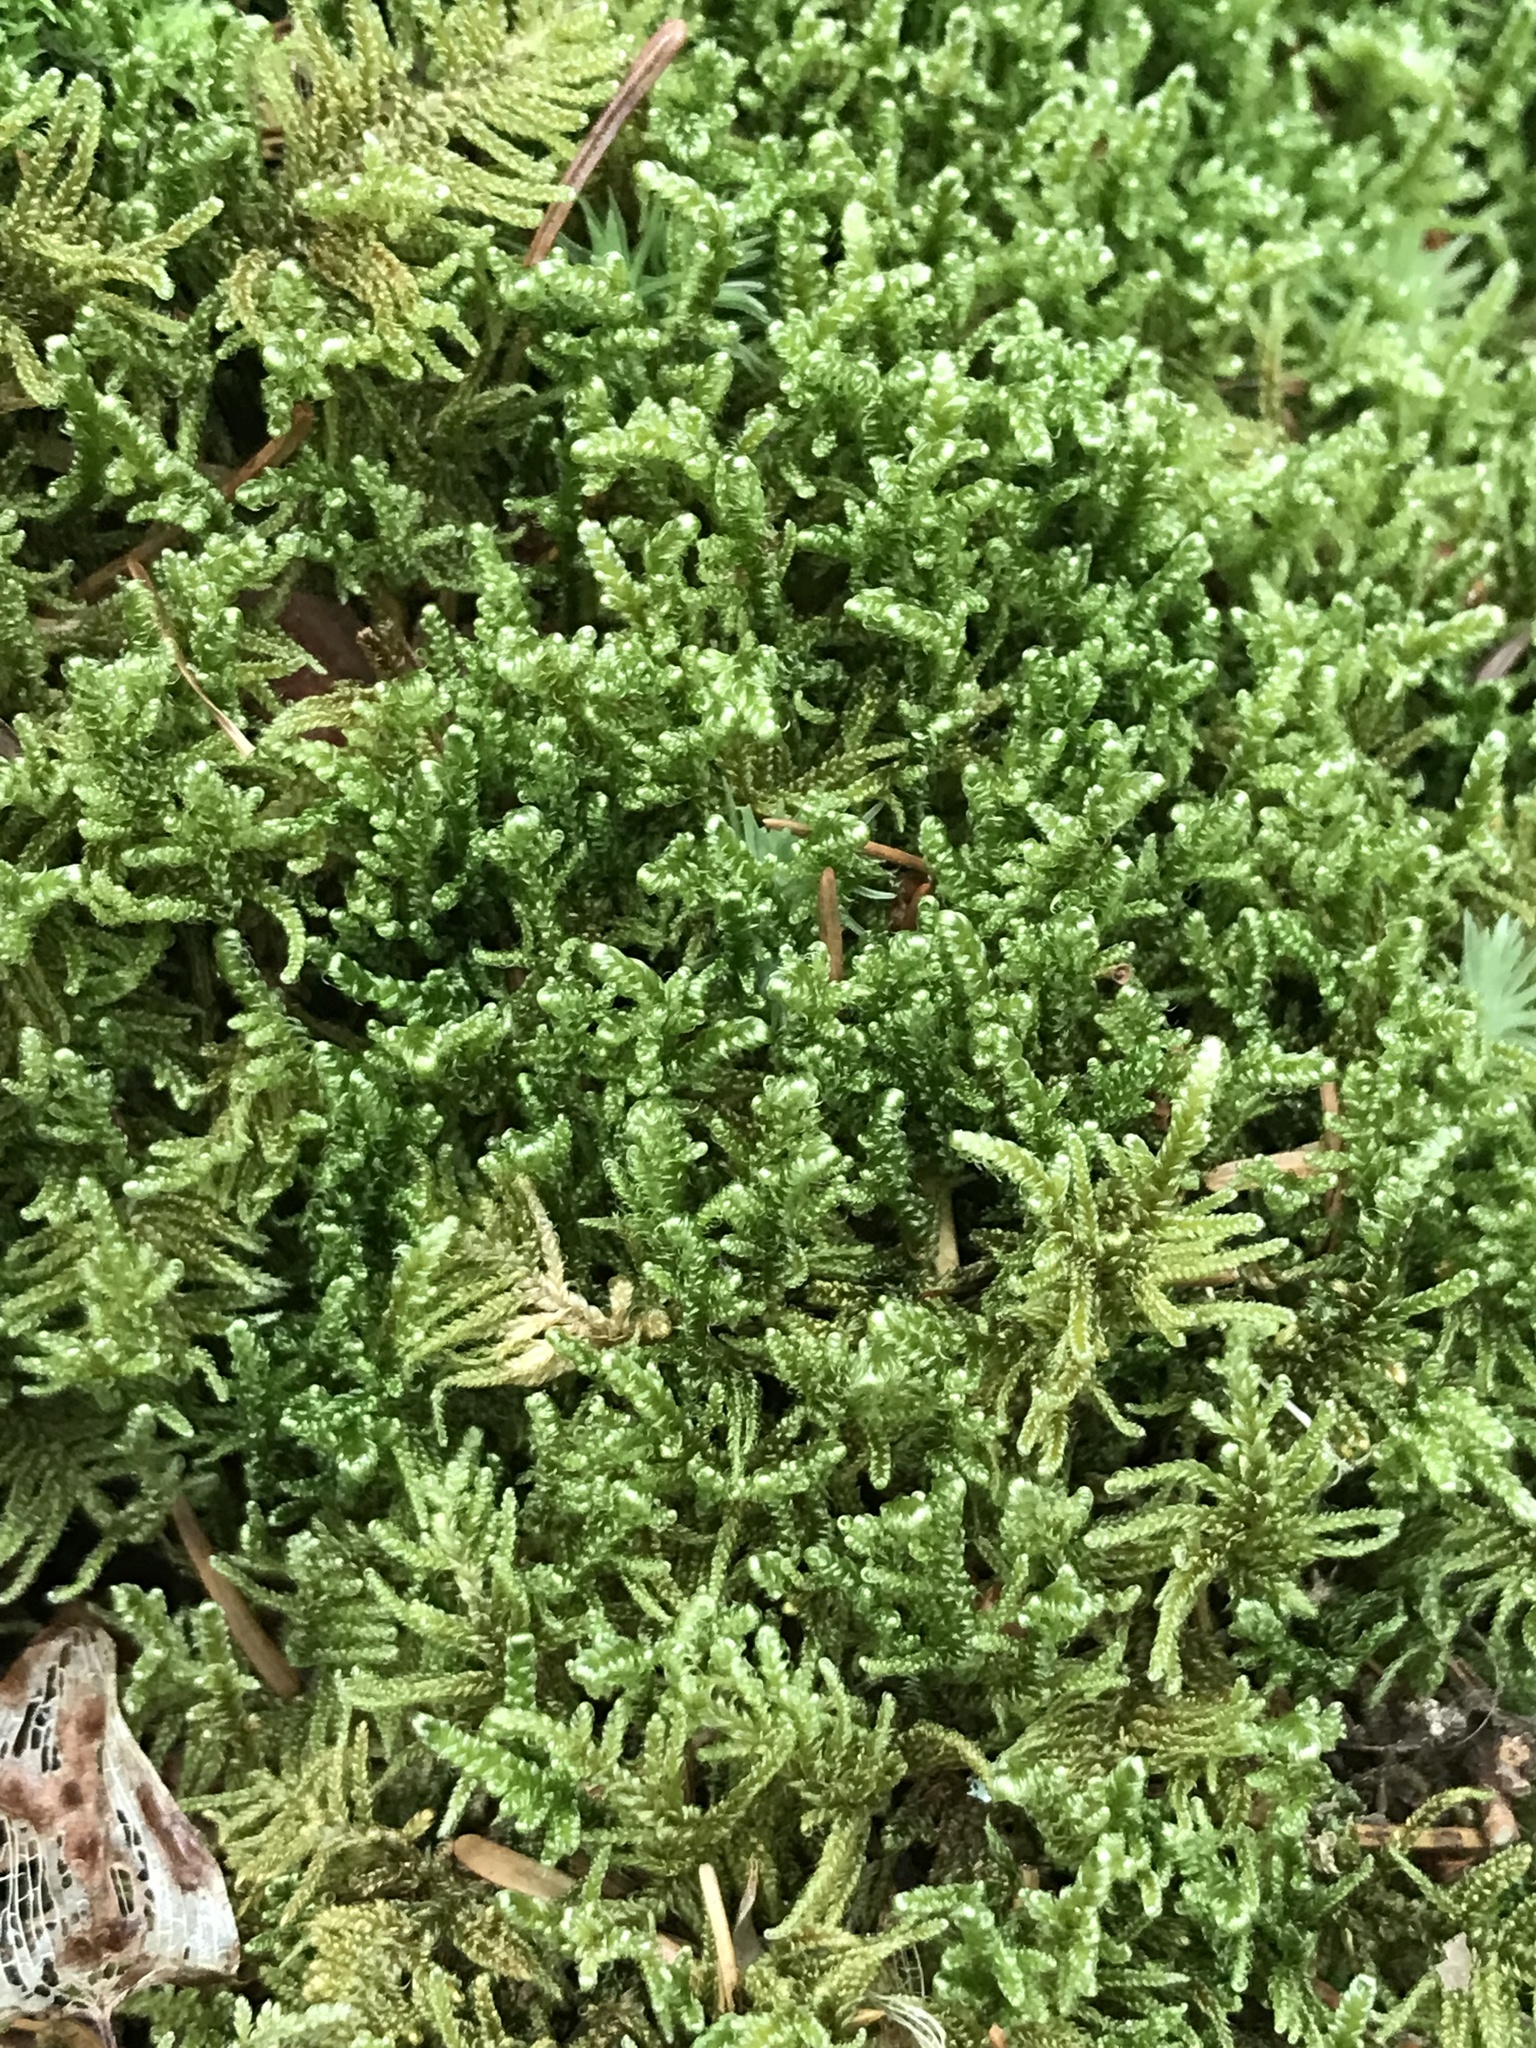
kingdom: Plantae
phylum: Bryophyta
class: Bryopsida
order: Hypnales
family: Callicladiaceae
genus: Callicladium
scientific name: Callicladium imponens
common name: Brocade moss
